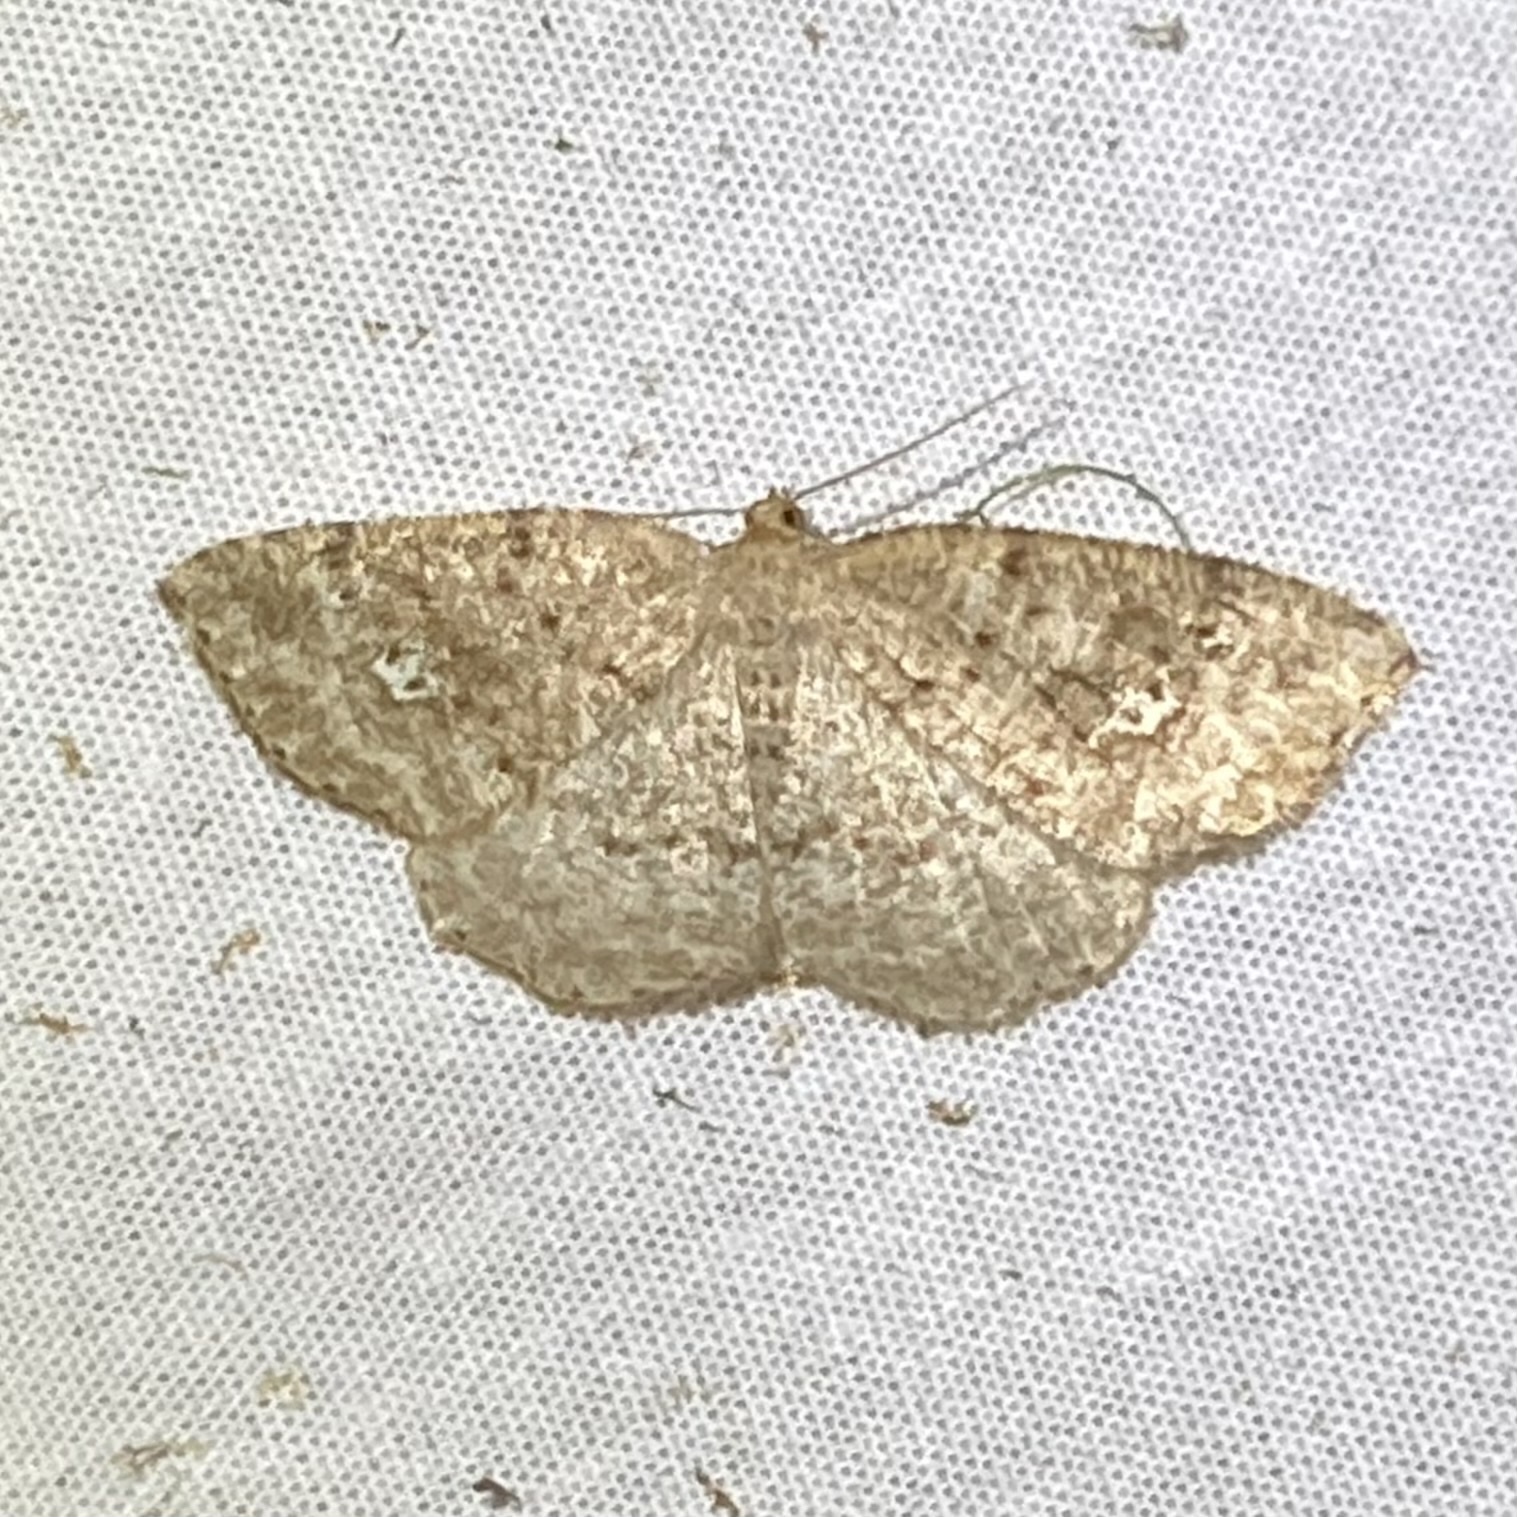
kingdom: Animalia
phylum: Arthropoda
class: Insecta
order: Lepidoptera
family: Geometridae
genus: Homochlodes
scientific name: Homochlodes fritillaria
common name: Pale homochlodes
